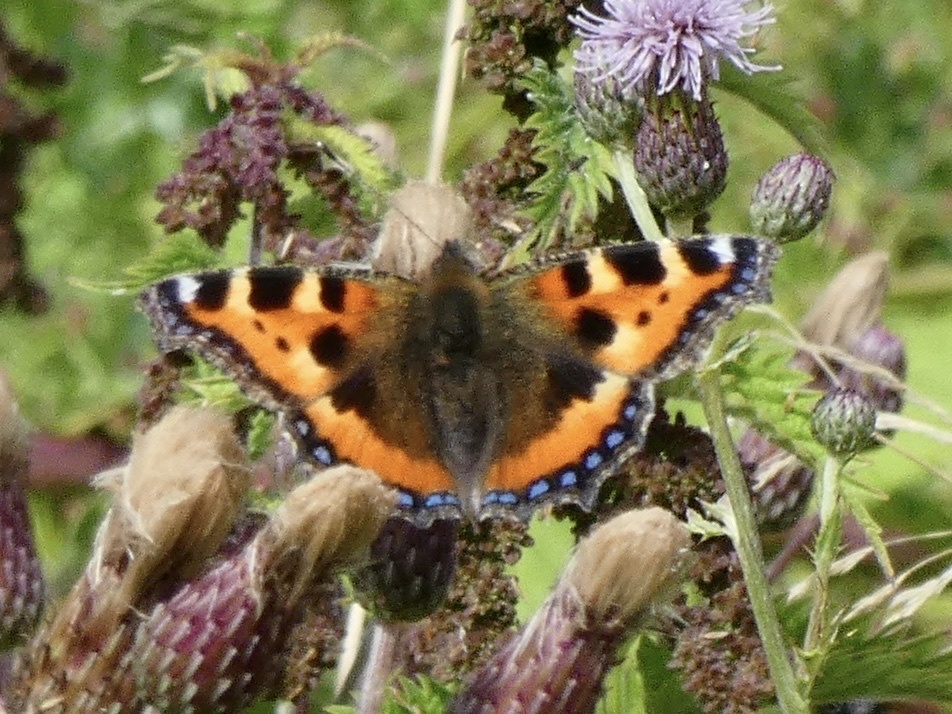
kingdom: Animalia
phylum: Arthropoda
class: Insecta
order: Lepidoptera
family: Nymphalidae
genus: Aglais
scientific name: Aglais urticae
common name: Small tortoiseshell
